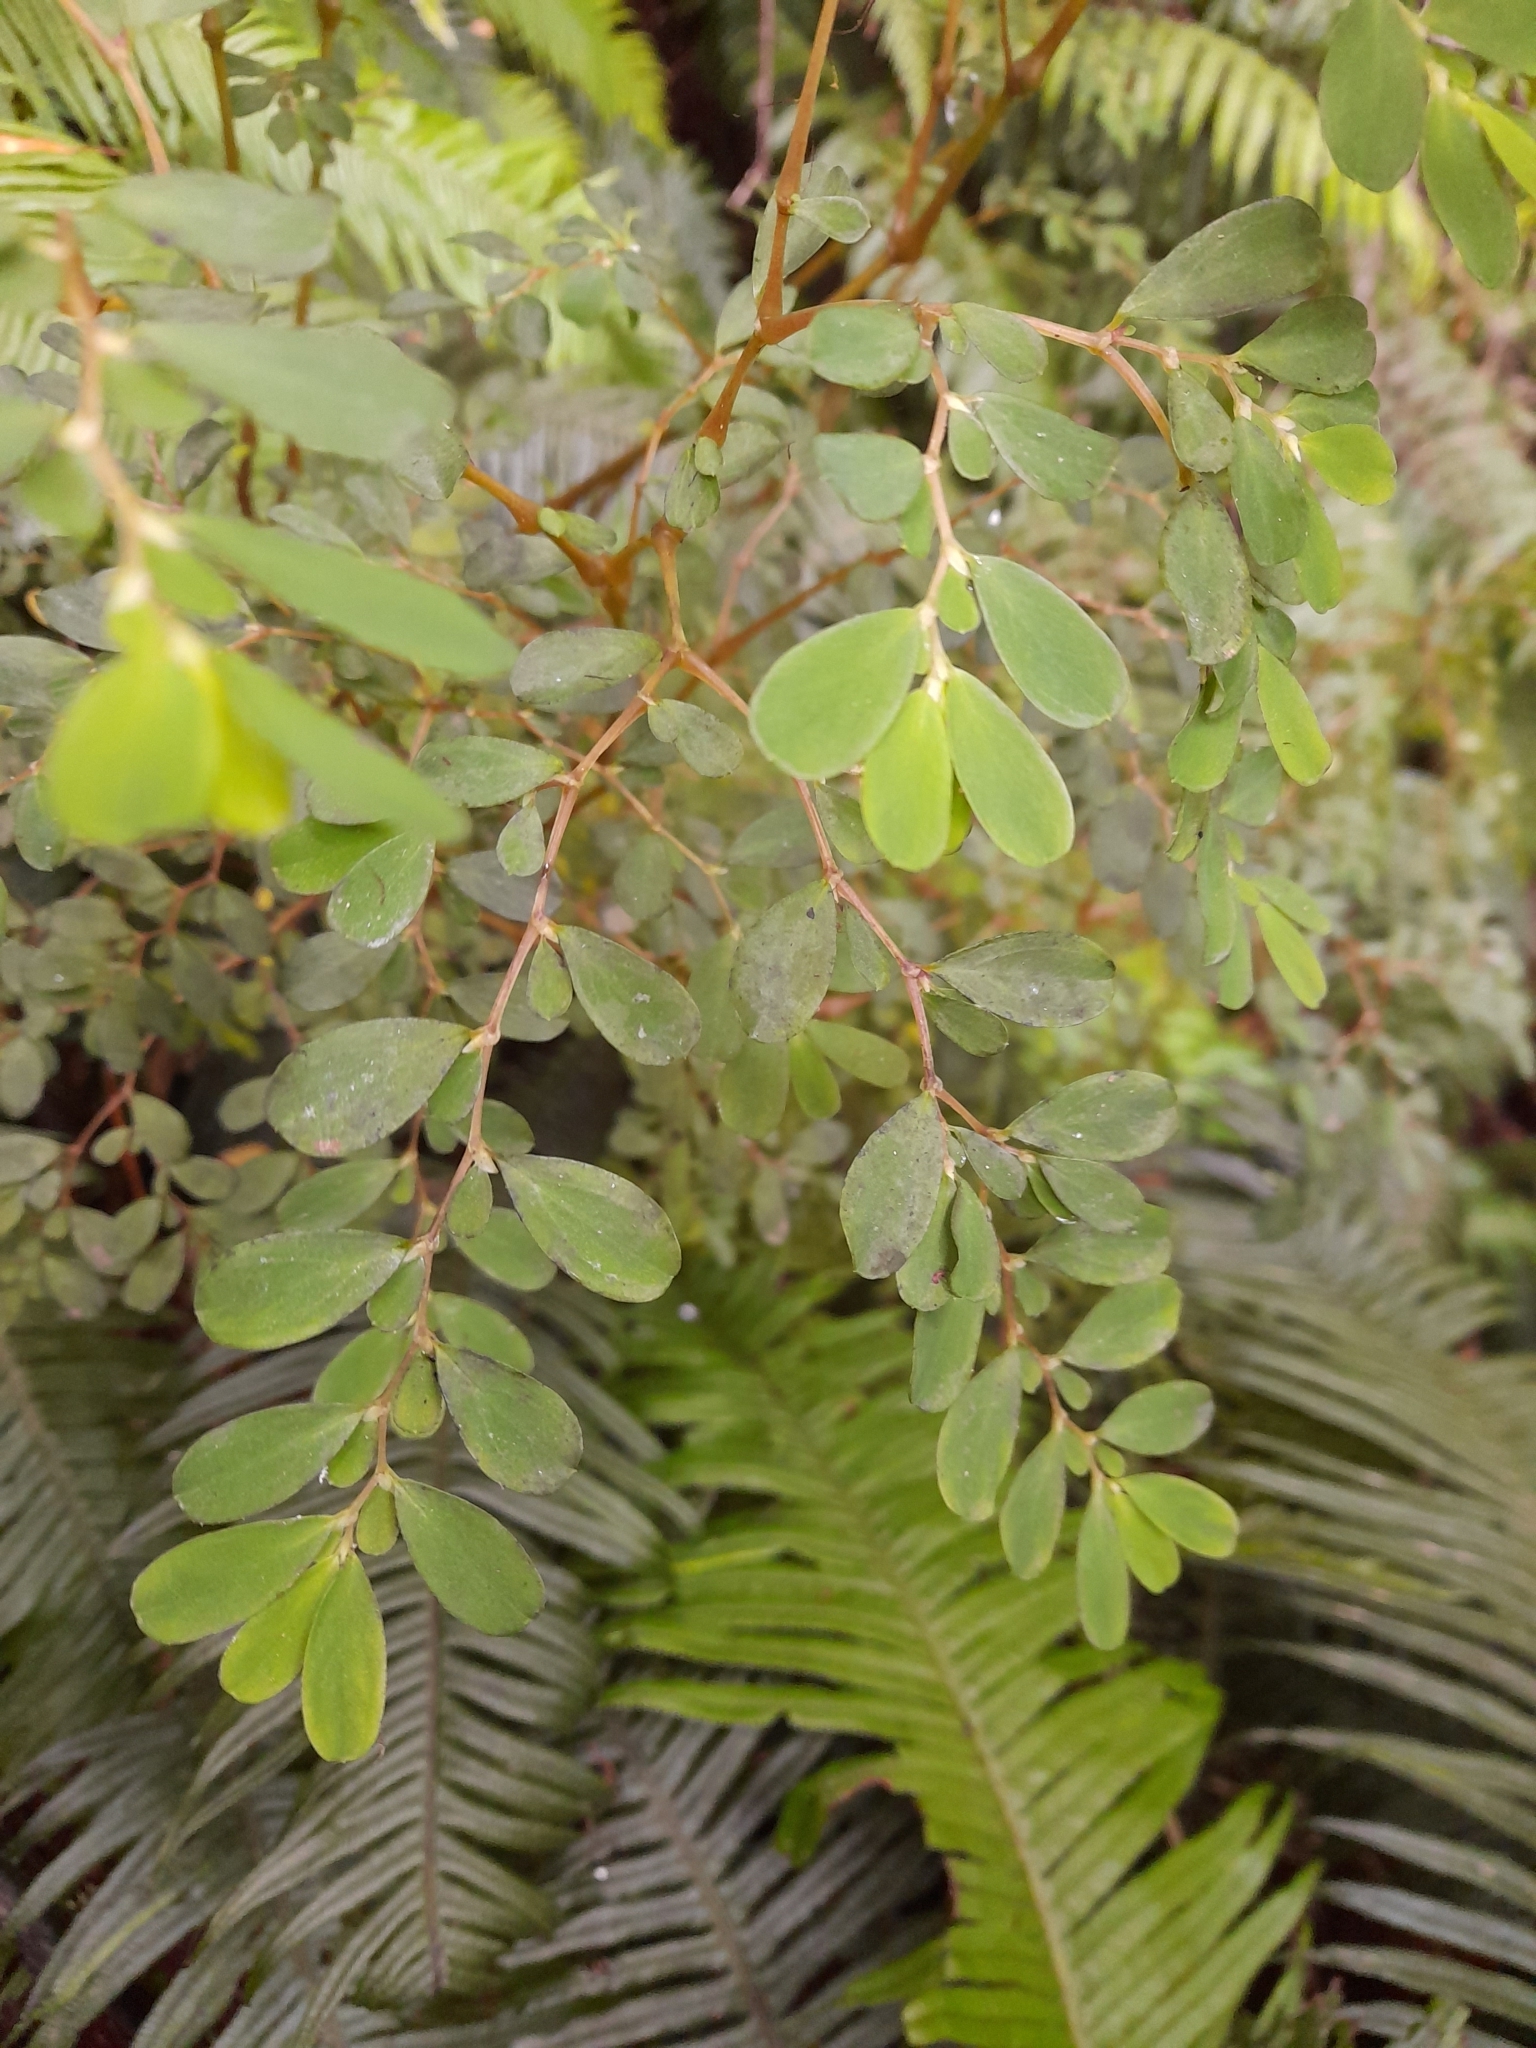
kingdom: Plantae
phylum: Tracheophyta
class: Magnoliopsida
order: Piperales
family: Aristolochiaceae
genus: Lactoris
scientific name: Lactoris fernandeziana
